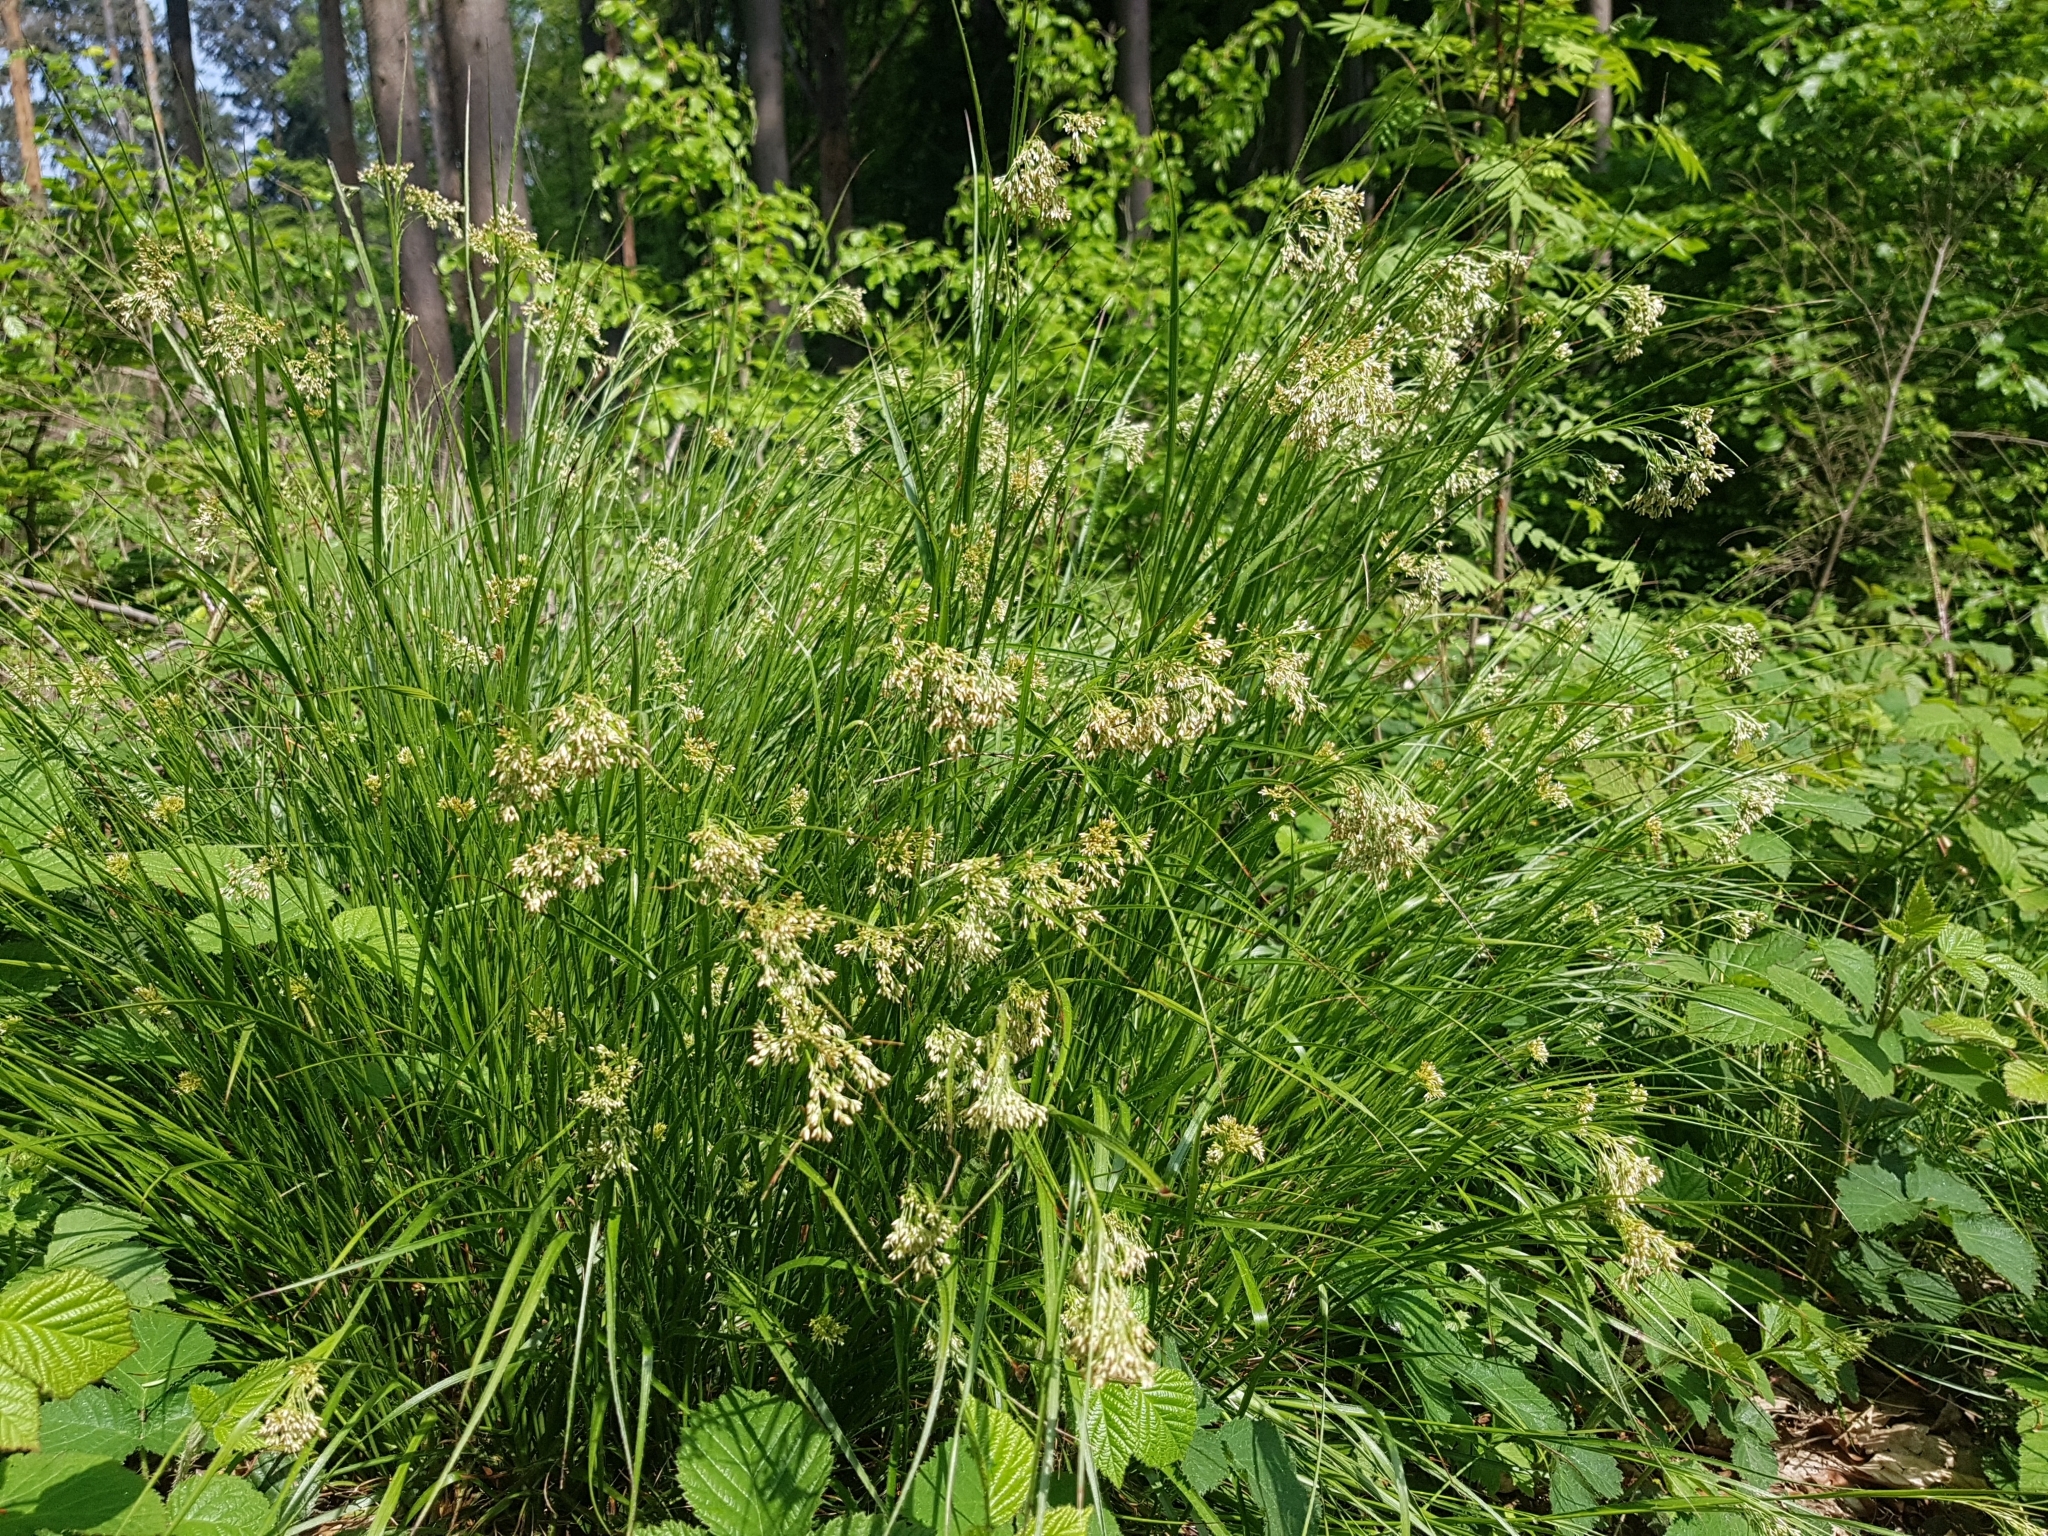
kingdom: Plantae
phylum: Tracheophyta
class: Liliopsida
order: Poales
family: Juncaceae
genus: Luzula
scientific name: Luzula luzuloides
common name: White wood-rush
